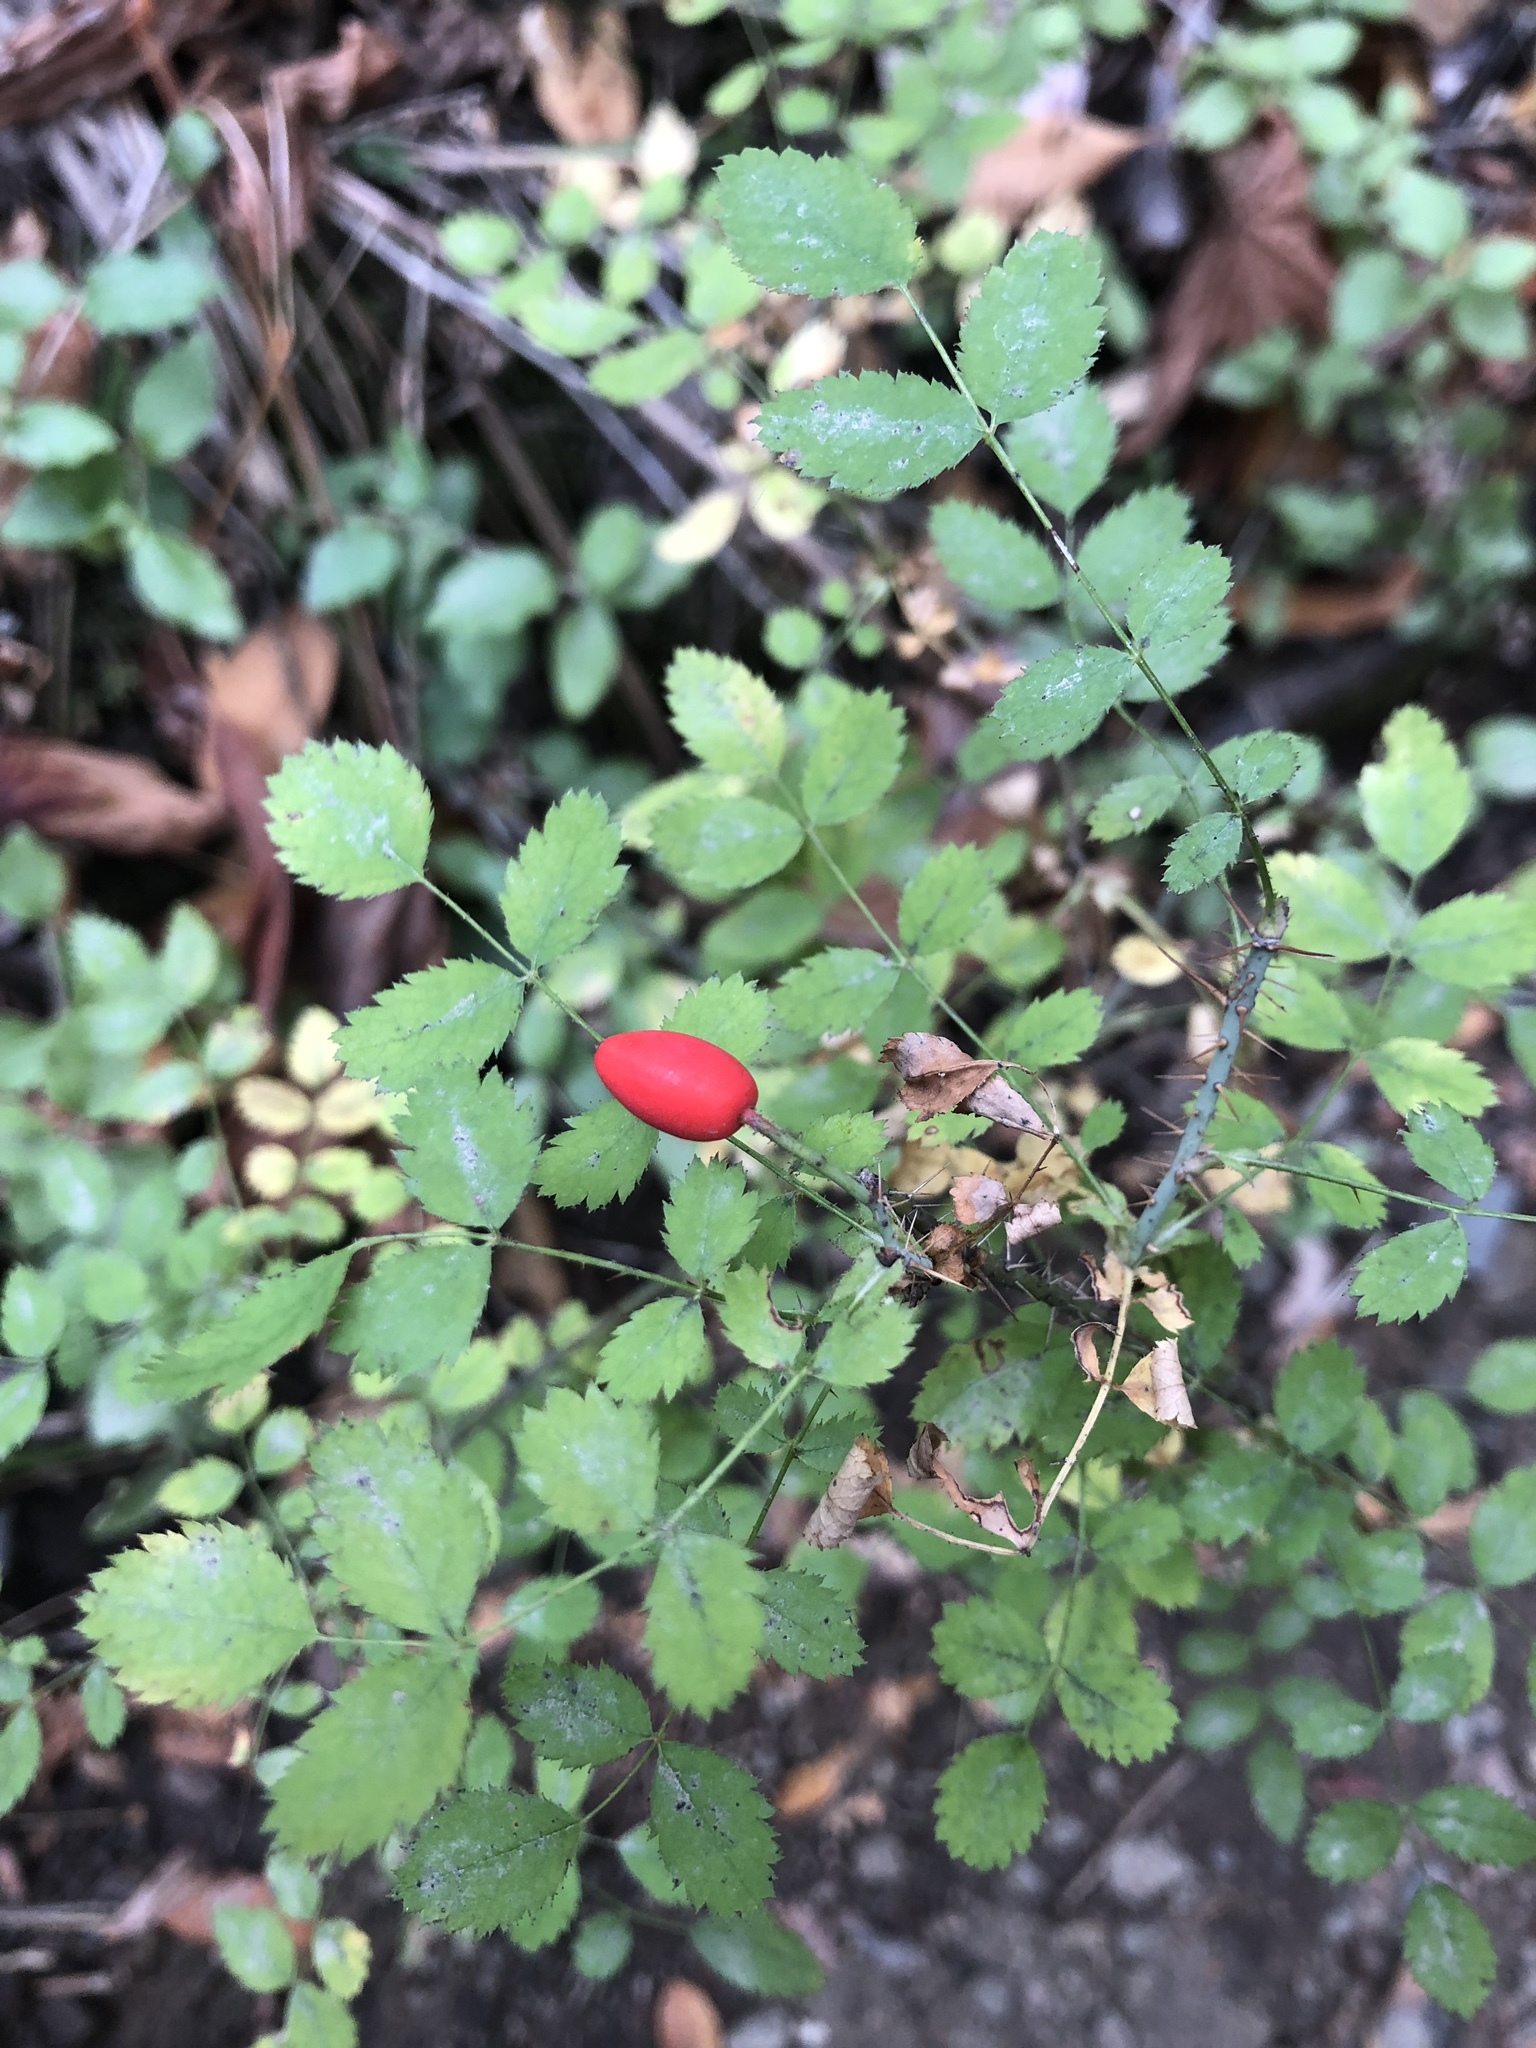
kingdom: Plantae
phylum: Tracheophyta
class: Magnoliopsida
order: Rosales
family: Rosaceae
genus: Rosa
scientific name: Rosa gymnocarpa
